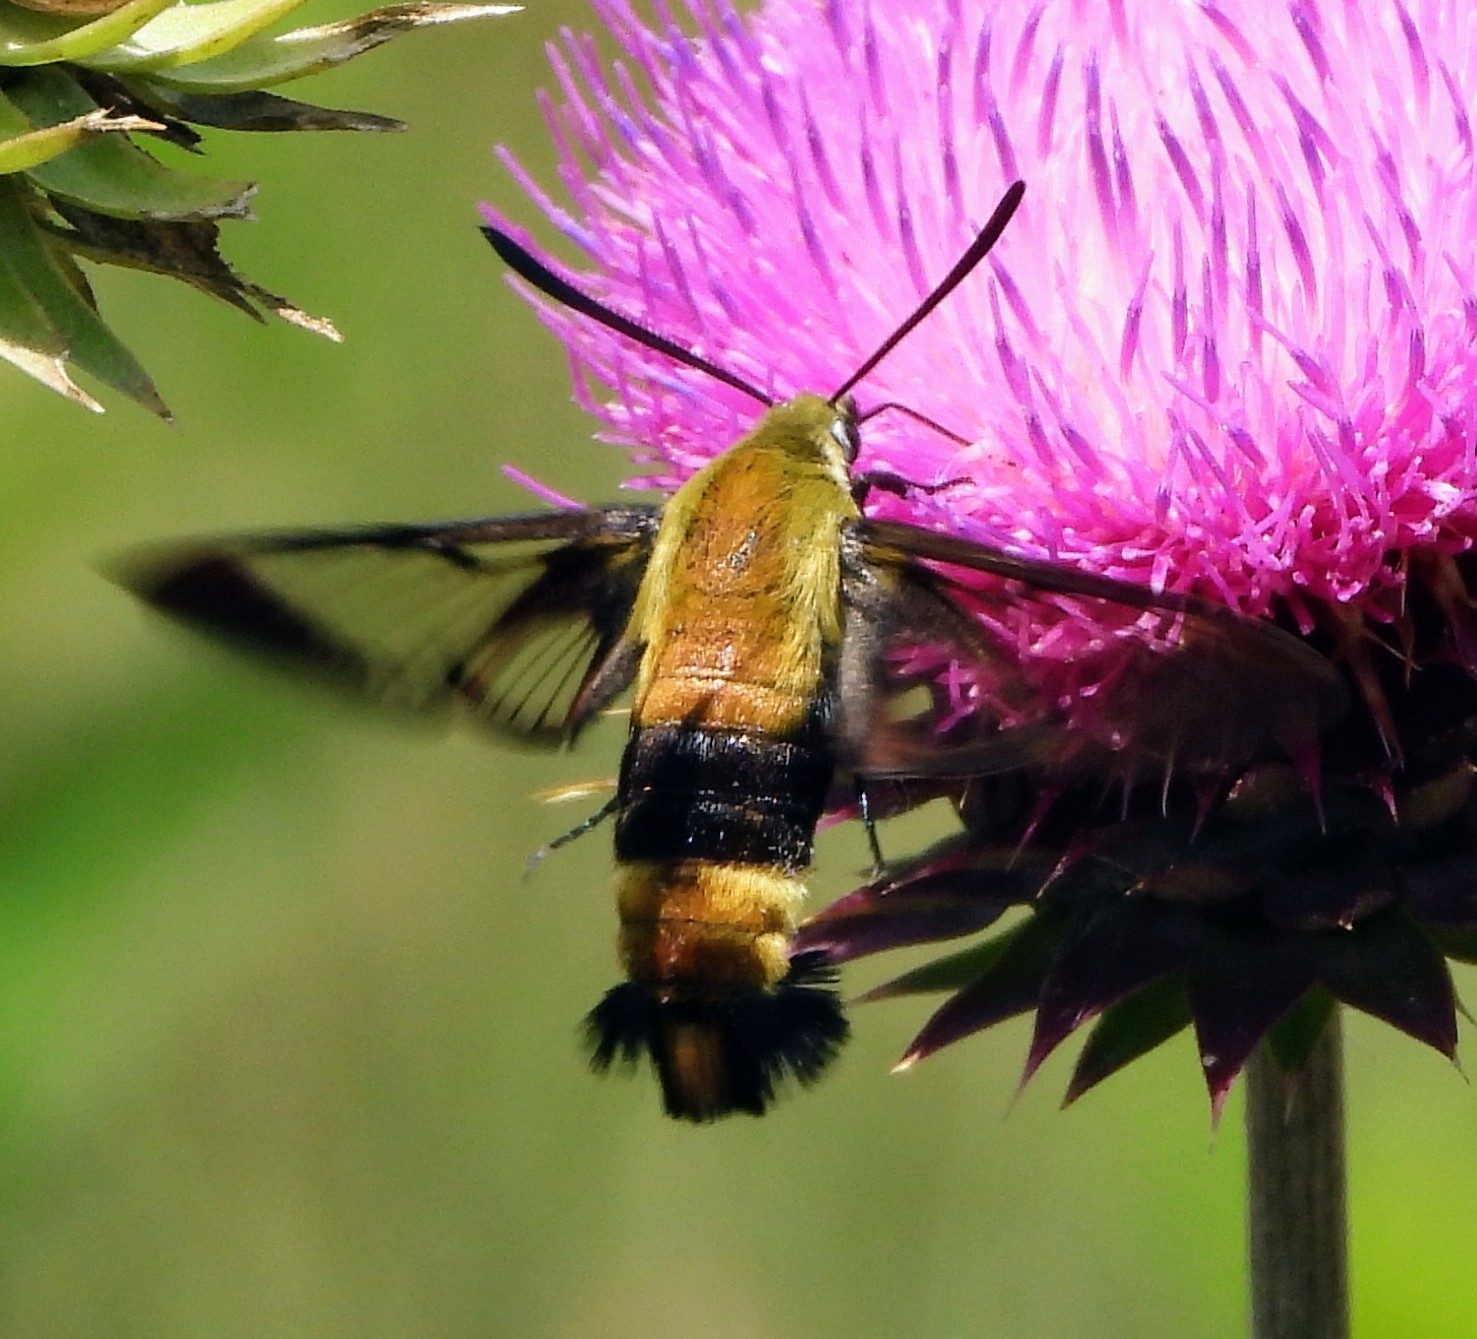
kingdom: Animalia
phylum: Arthropoda
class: Insecta
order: Lepidoptera
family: Sphingidae
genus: Hemaris
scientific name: Hemaris diffinis
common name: Bumblebee moth
